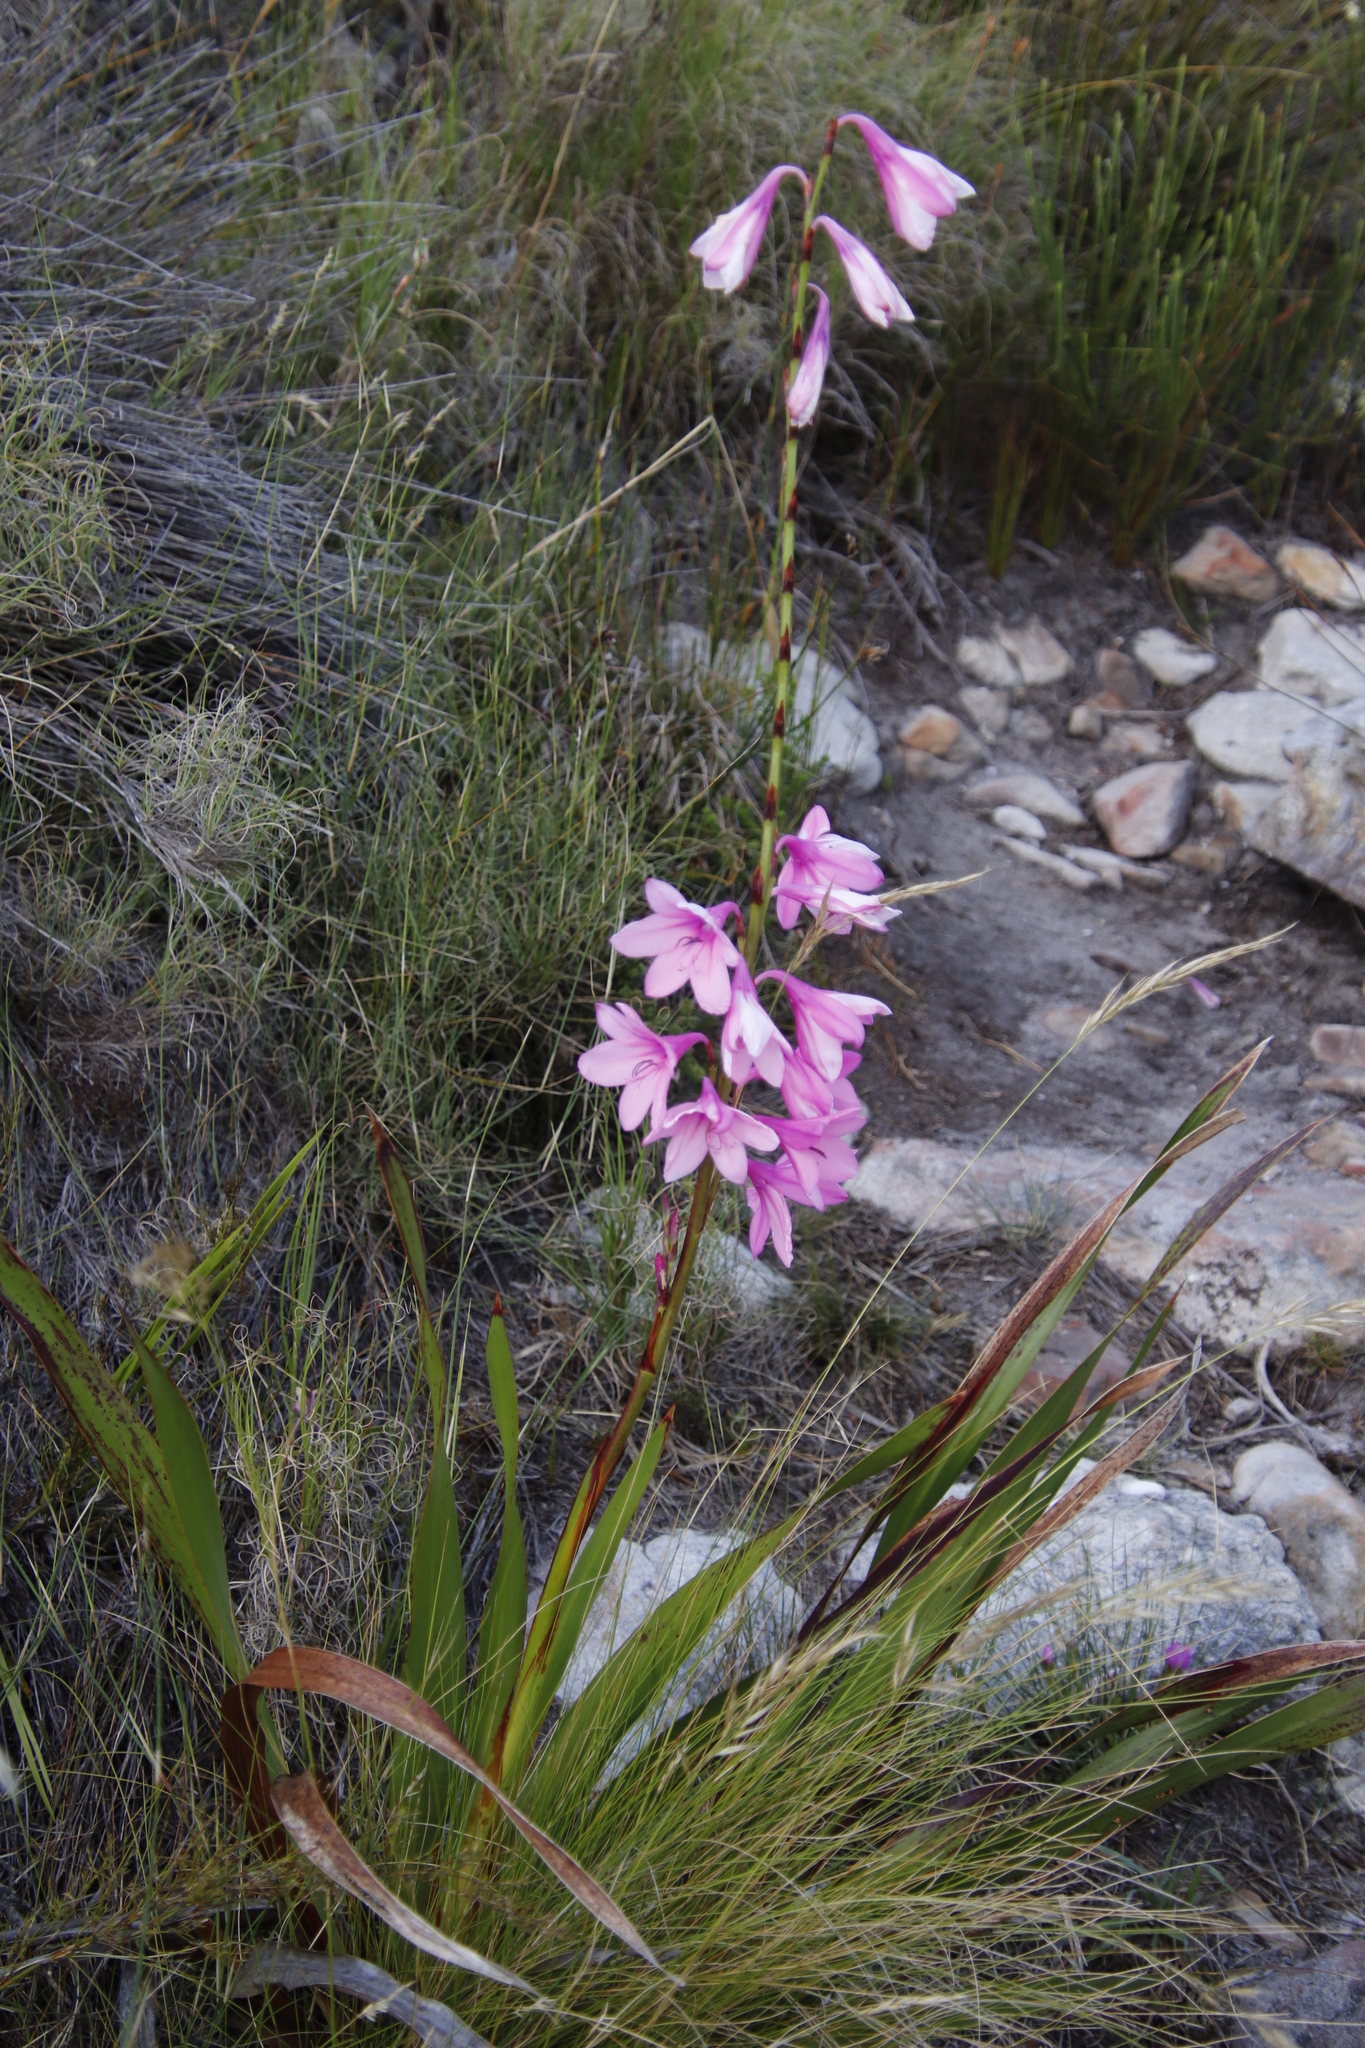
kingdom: Plantae
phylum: Tracheophyta
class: Liliopsida
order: Asparagales
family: Iridaceae
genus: Watsonia
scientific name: Watsonia borbonica
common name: Bugle-lily
